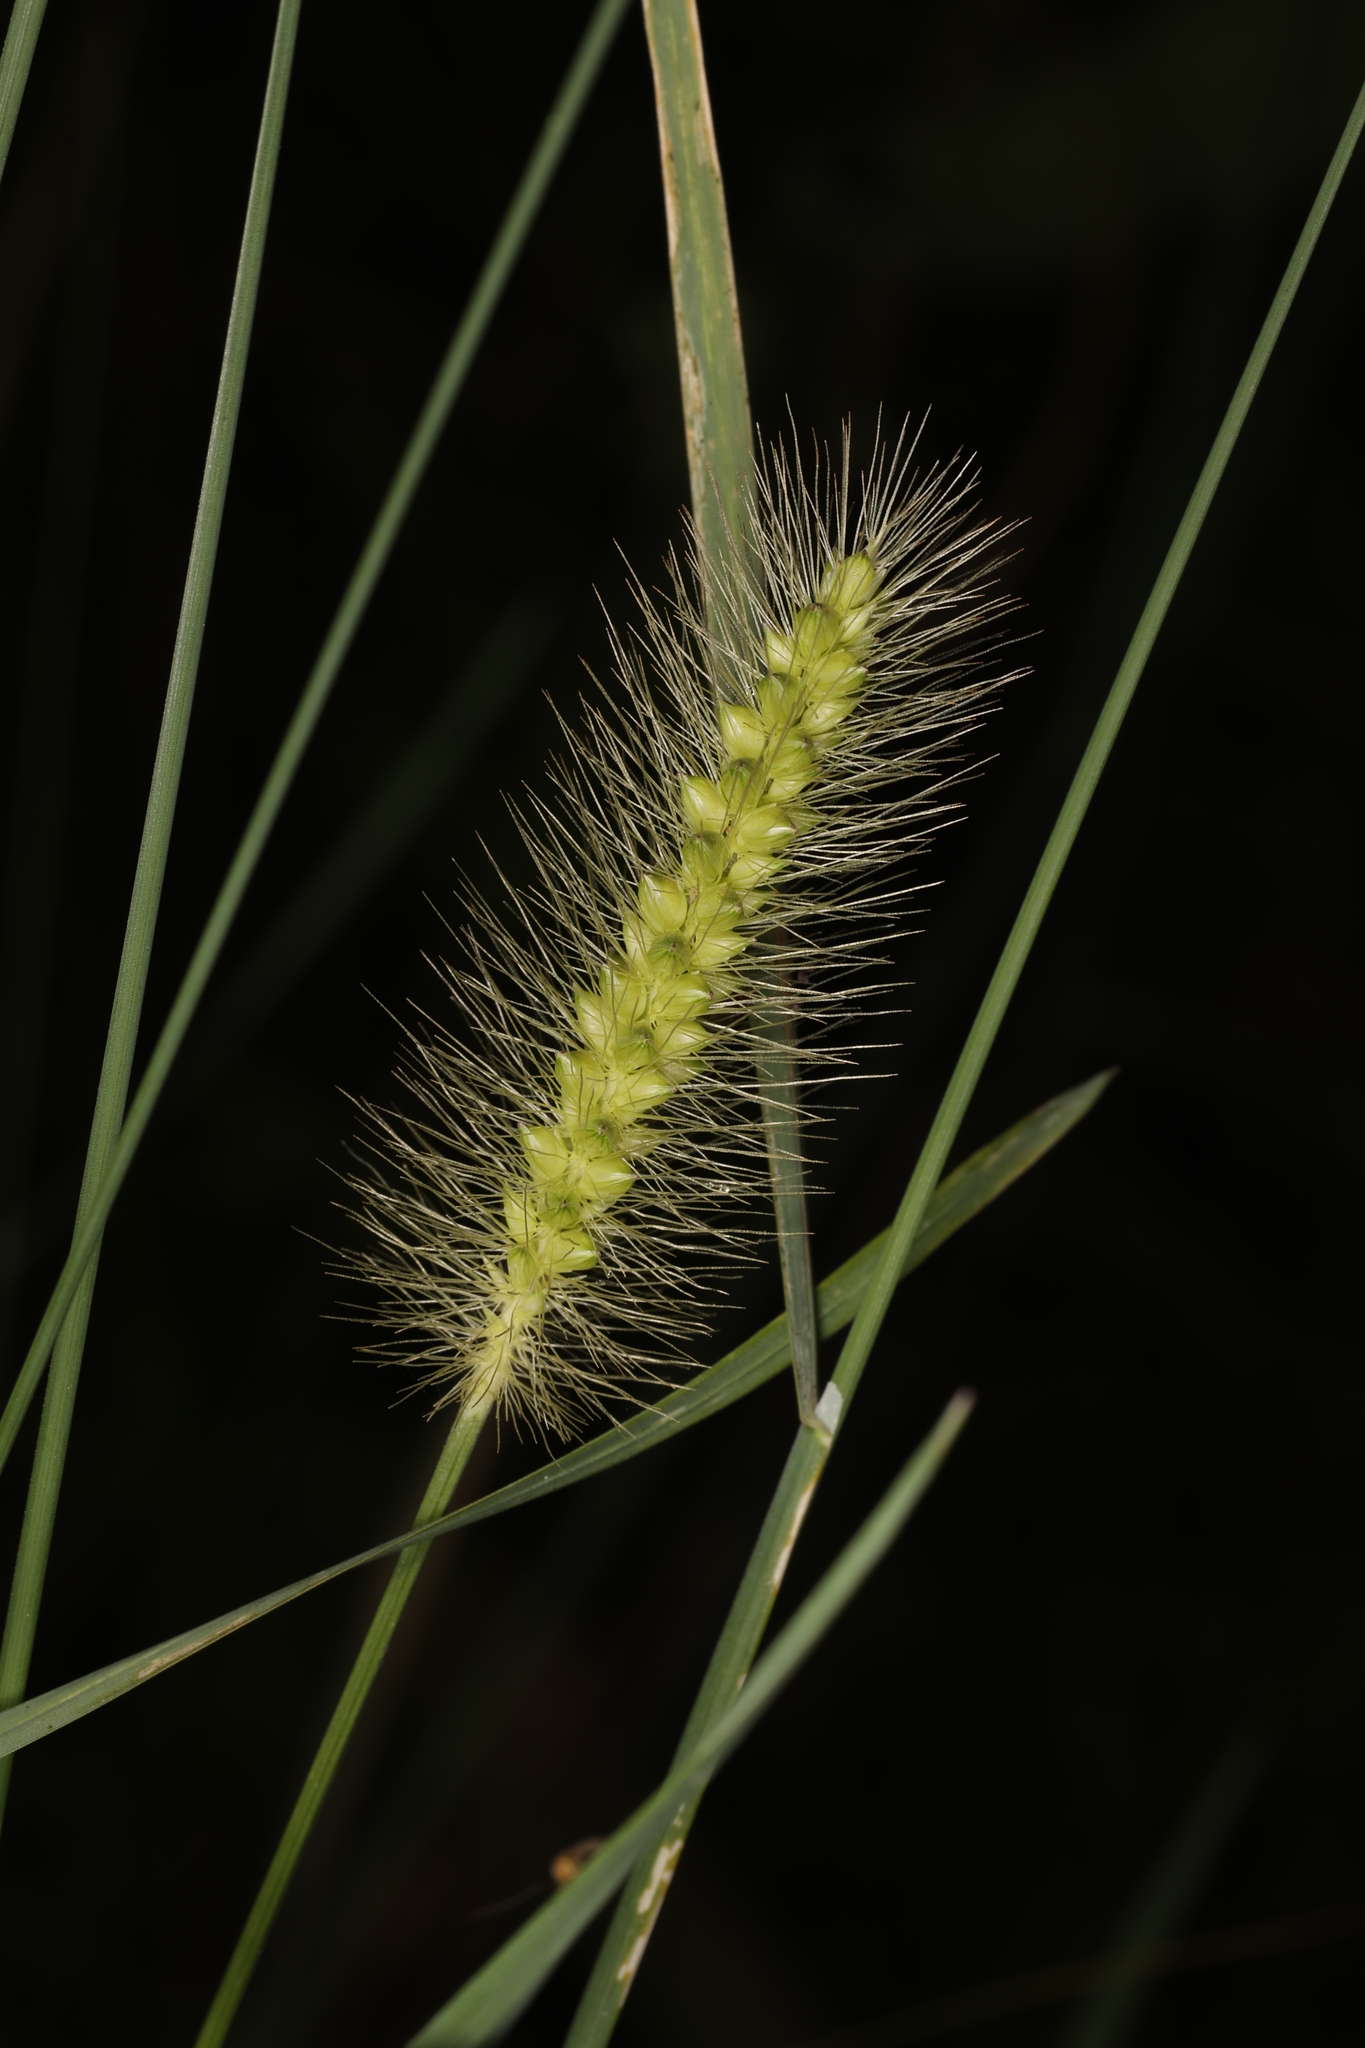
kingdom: Plantae
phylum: Tracheophyta
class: Liliopsida
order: Poales
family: Poaceae
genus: Setaria
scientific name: Setaria parviflora
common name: Knotroot bristle-grass
